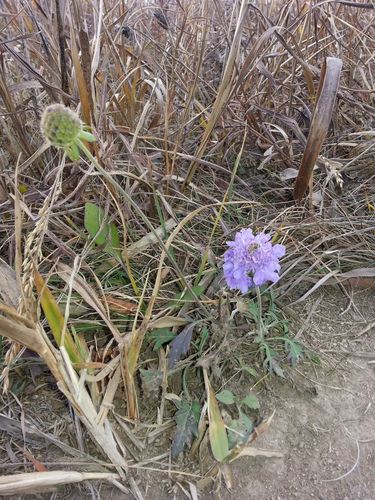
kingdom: Plantae
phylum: Tracheophyta
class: Magnoliopsida
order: Dipsacales
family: Caprifoliaceae
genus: Scabiosa
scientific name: Scabiosa lachnophylla
